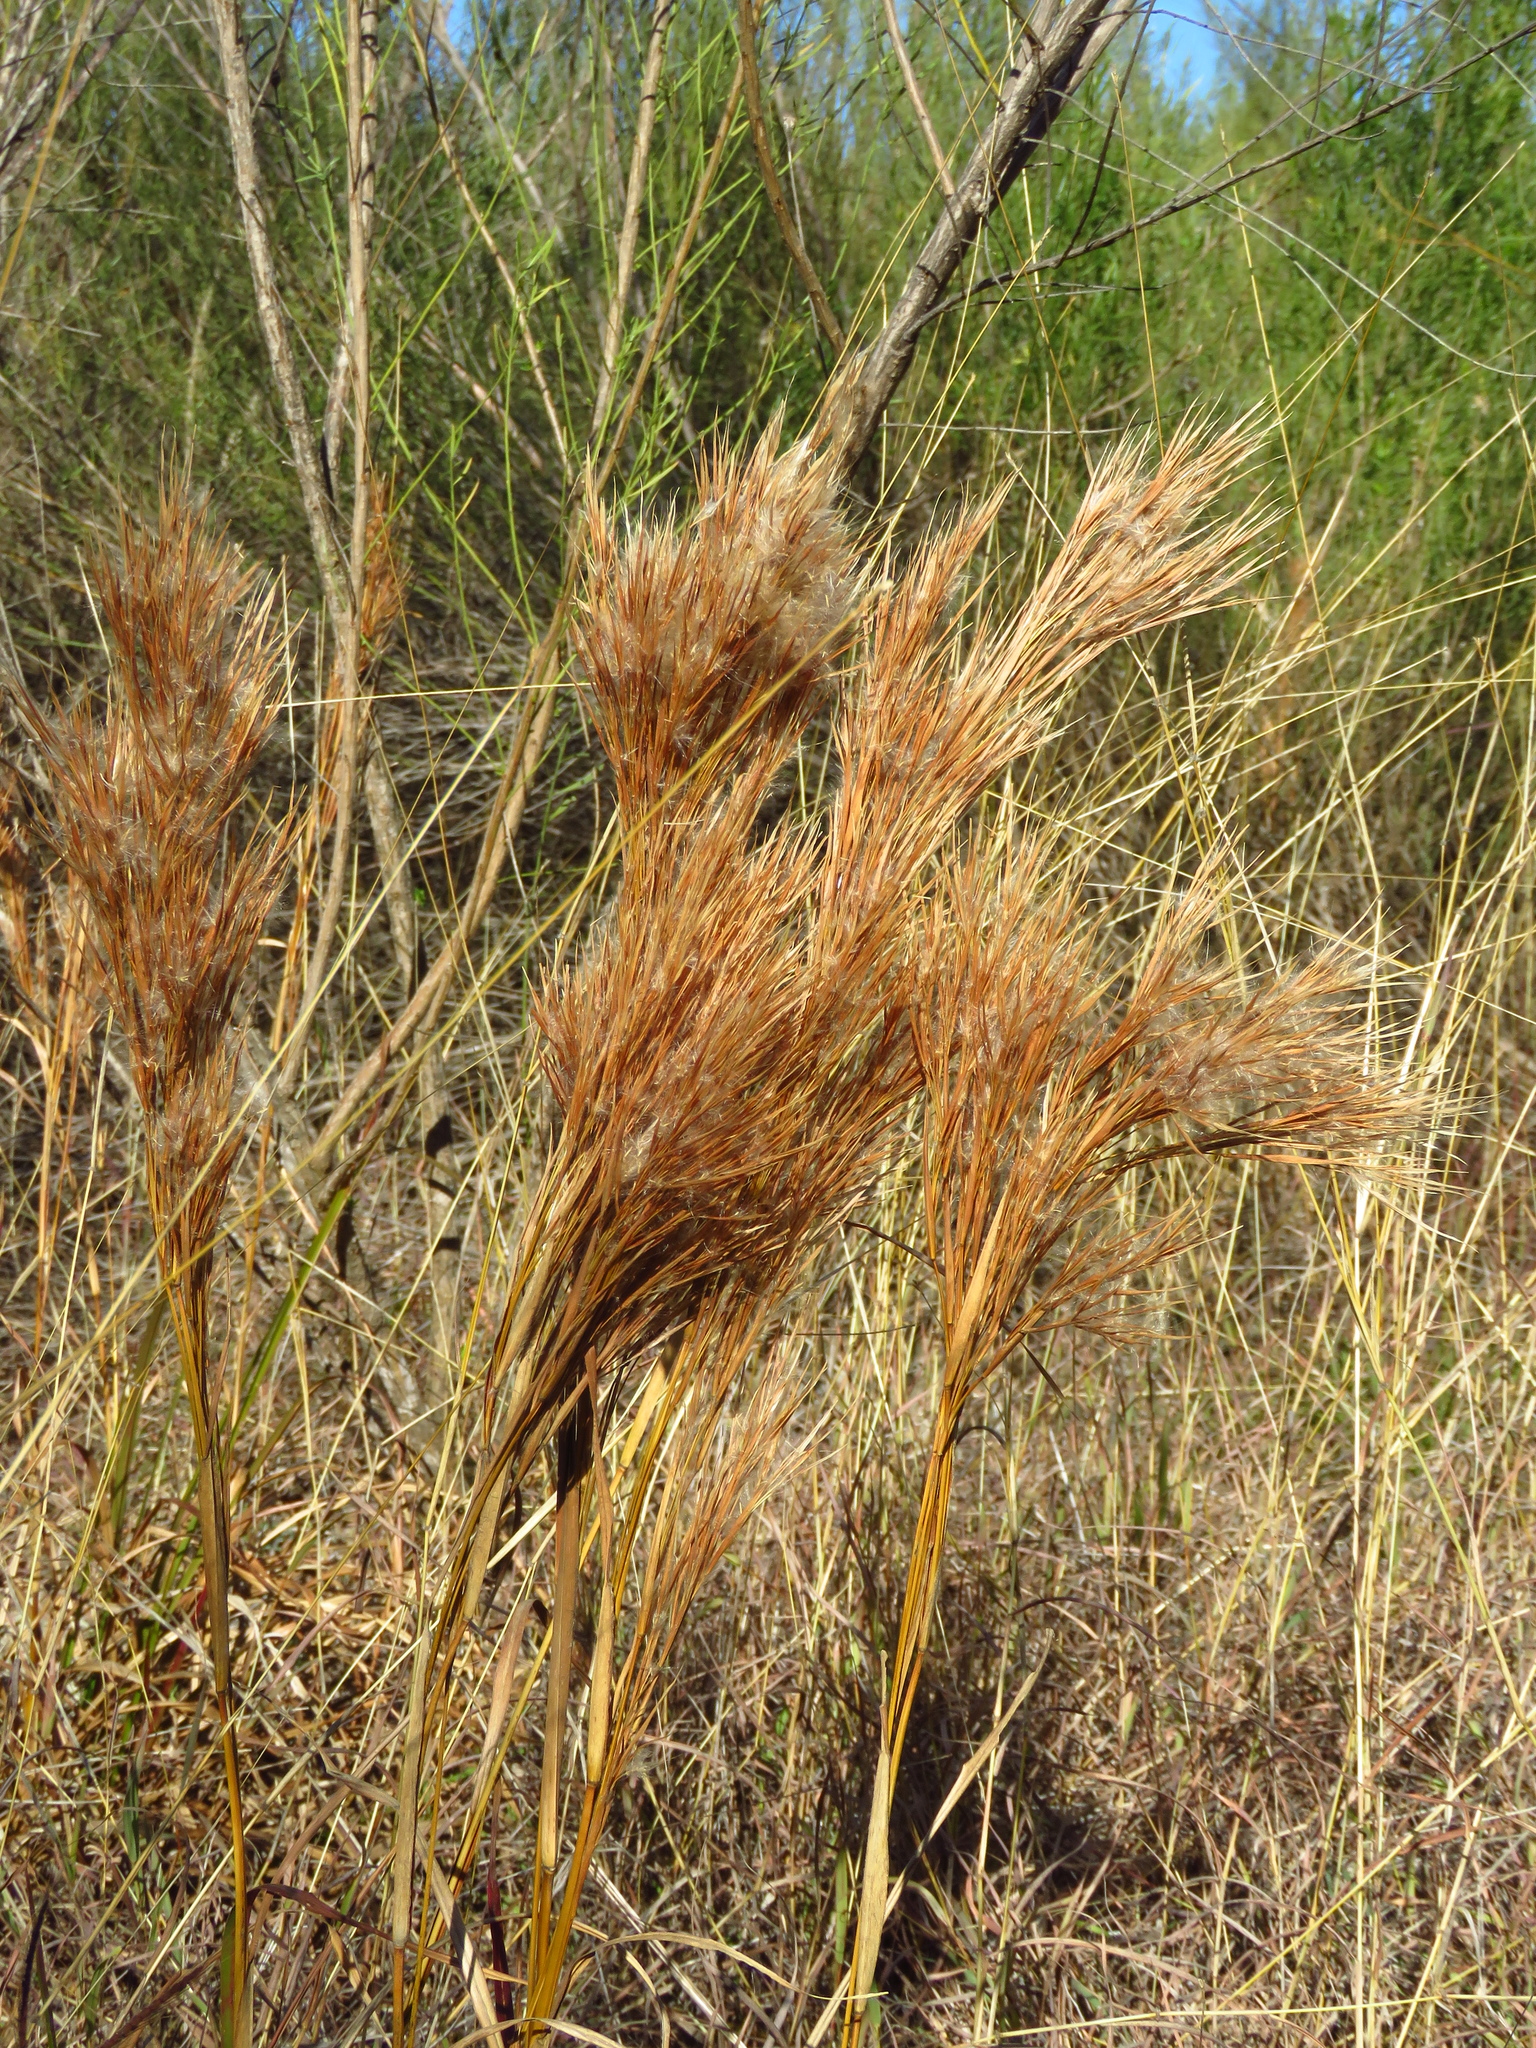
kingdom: Plantae
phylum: Tracheophyta
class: Liliopsida
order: Poales
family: Poaceae
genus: Andropogon
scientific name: Andropogon tenuispatheus
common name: Bushy bluestem
